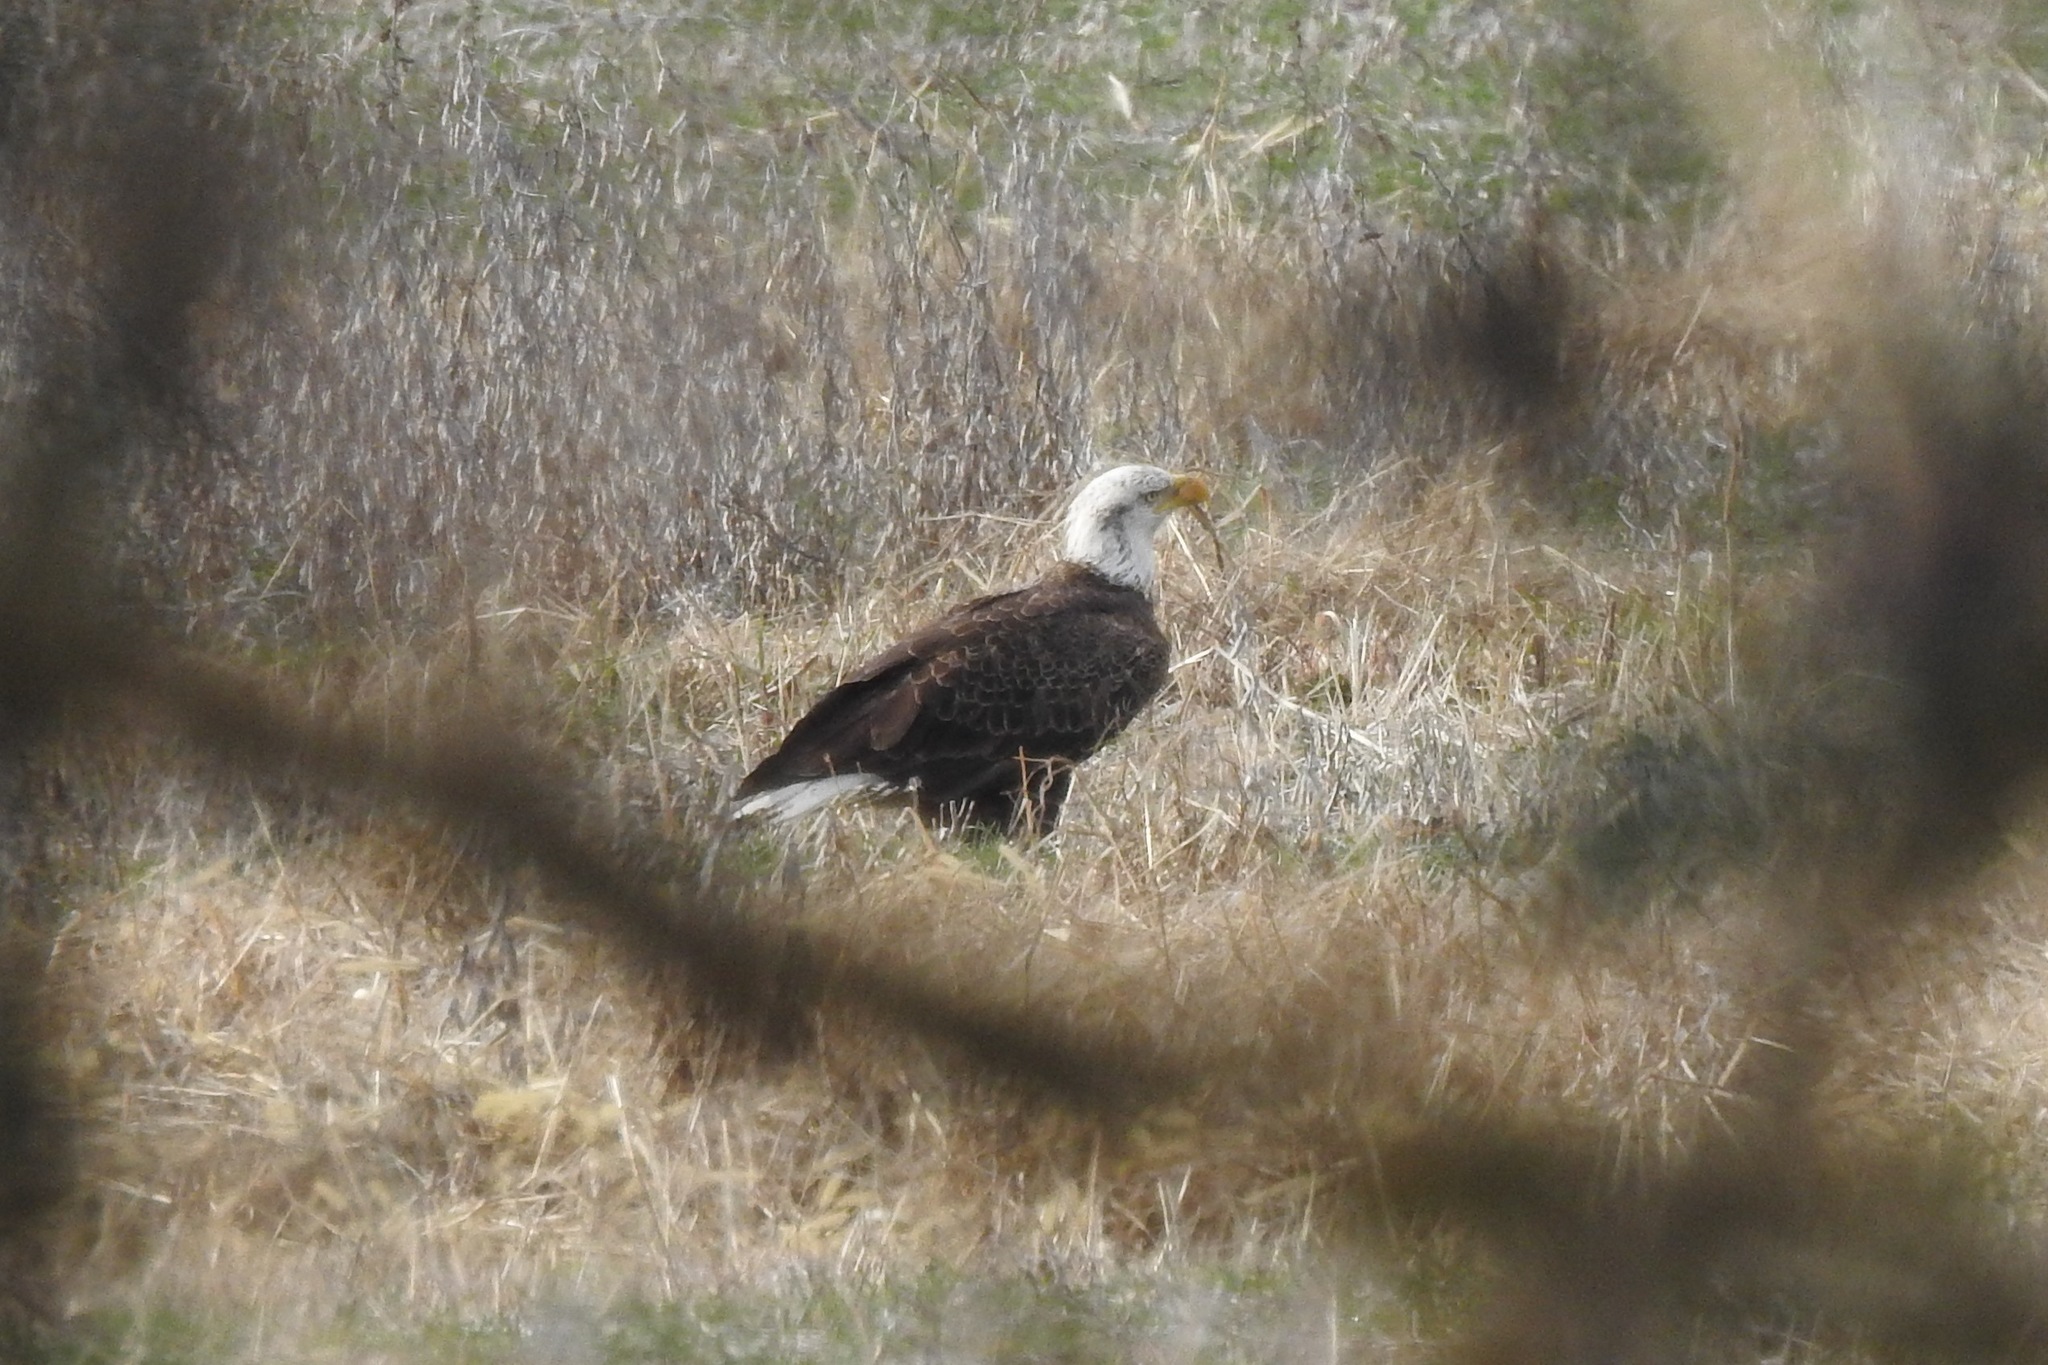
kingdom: Animalia
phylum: Chordata
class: Aves
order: Accipitriformes
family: Accipitridae
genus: Haliaeetus
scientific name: Haliaeetus leucocephalus
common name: Bald eagle
